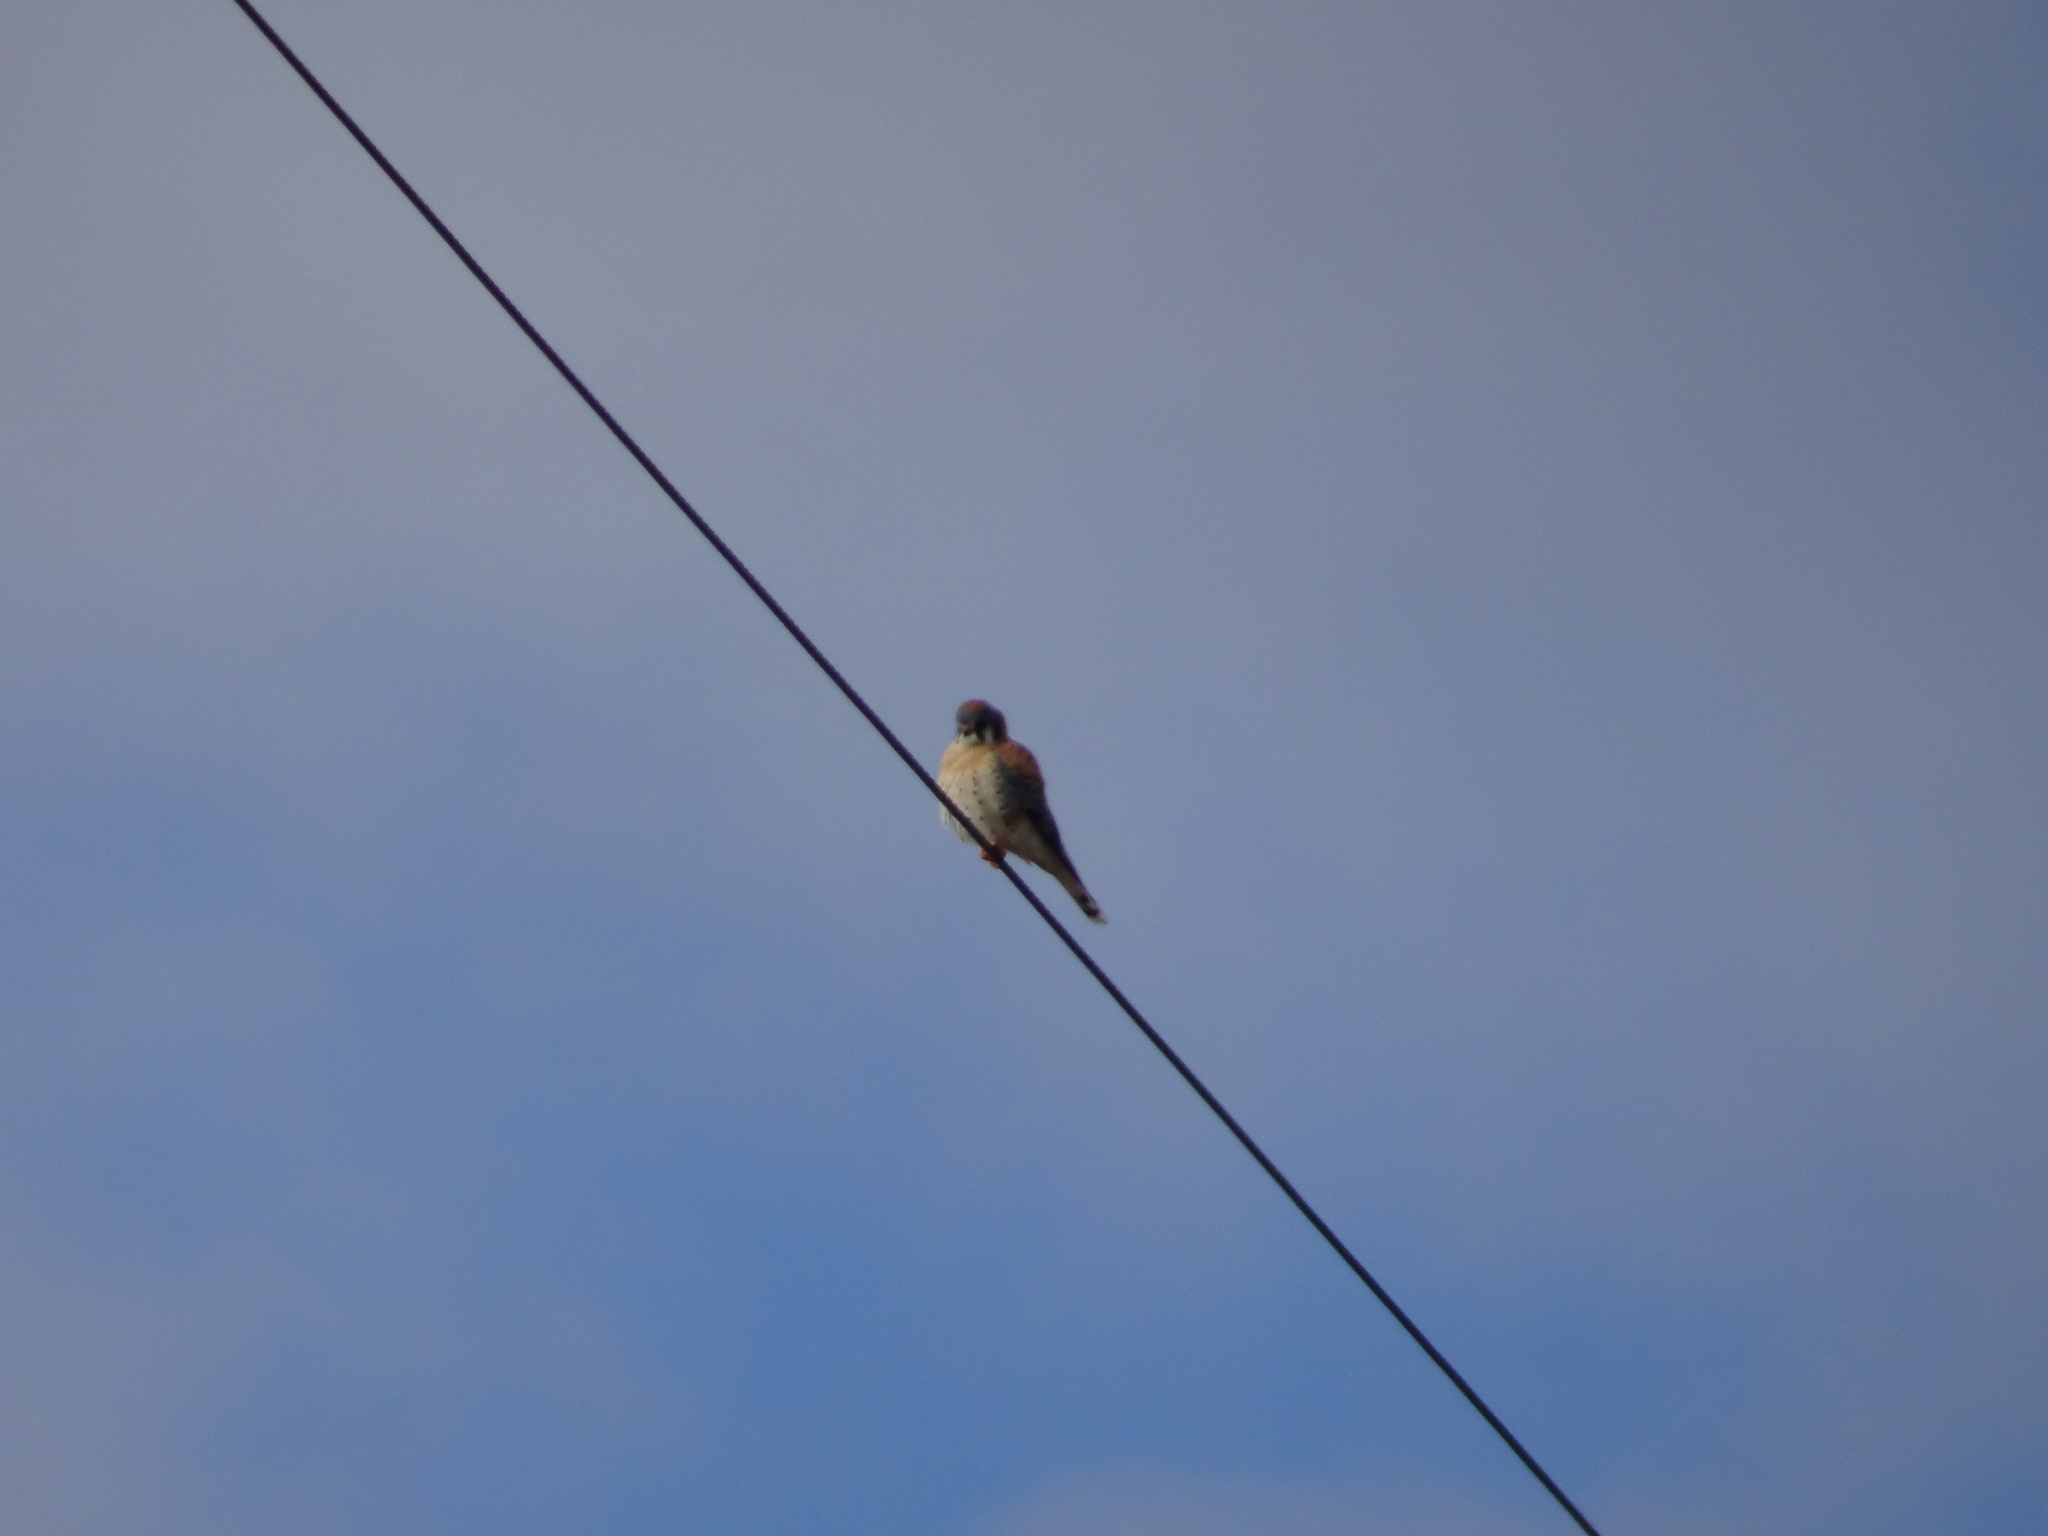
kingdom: Animalia
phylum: Chordata
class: Aves
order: Falconiformes
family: Falconidae
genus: Falco
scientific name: Falco sparverius
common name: American kestrel
